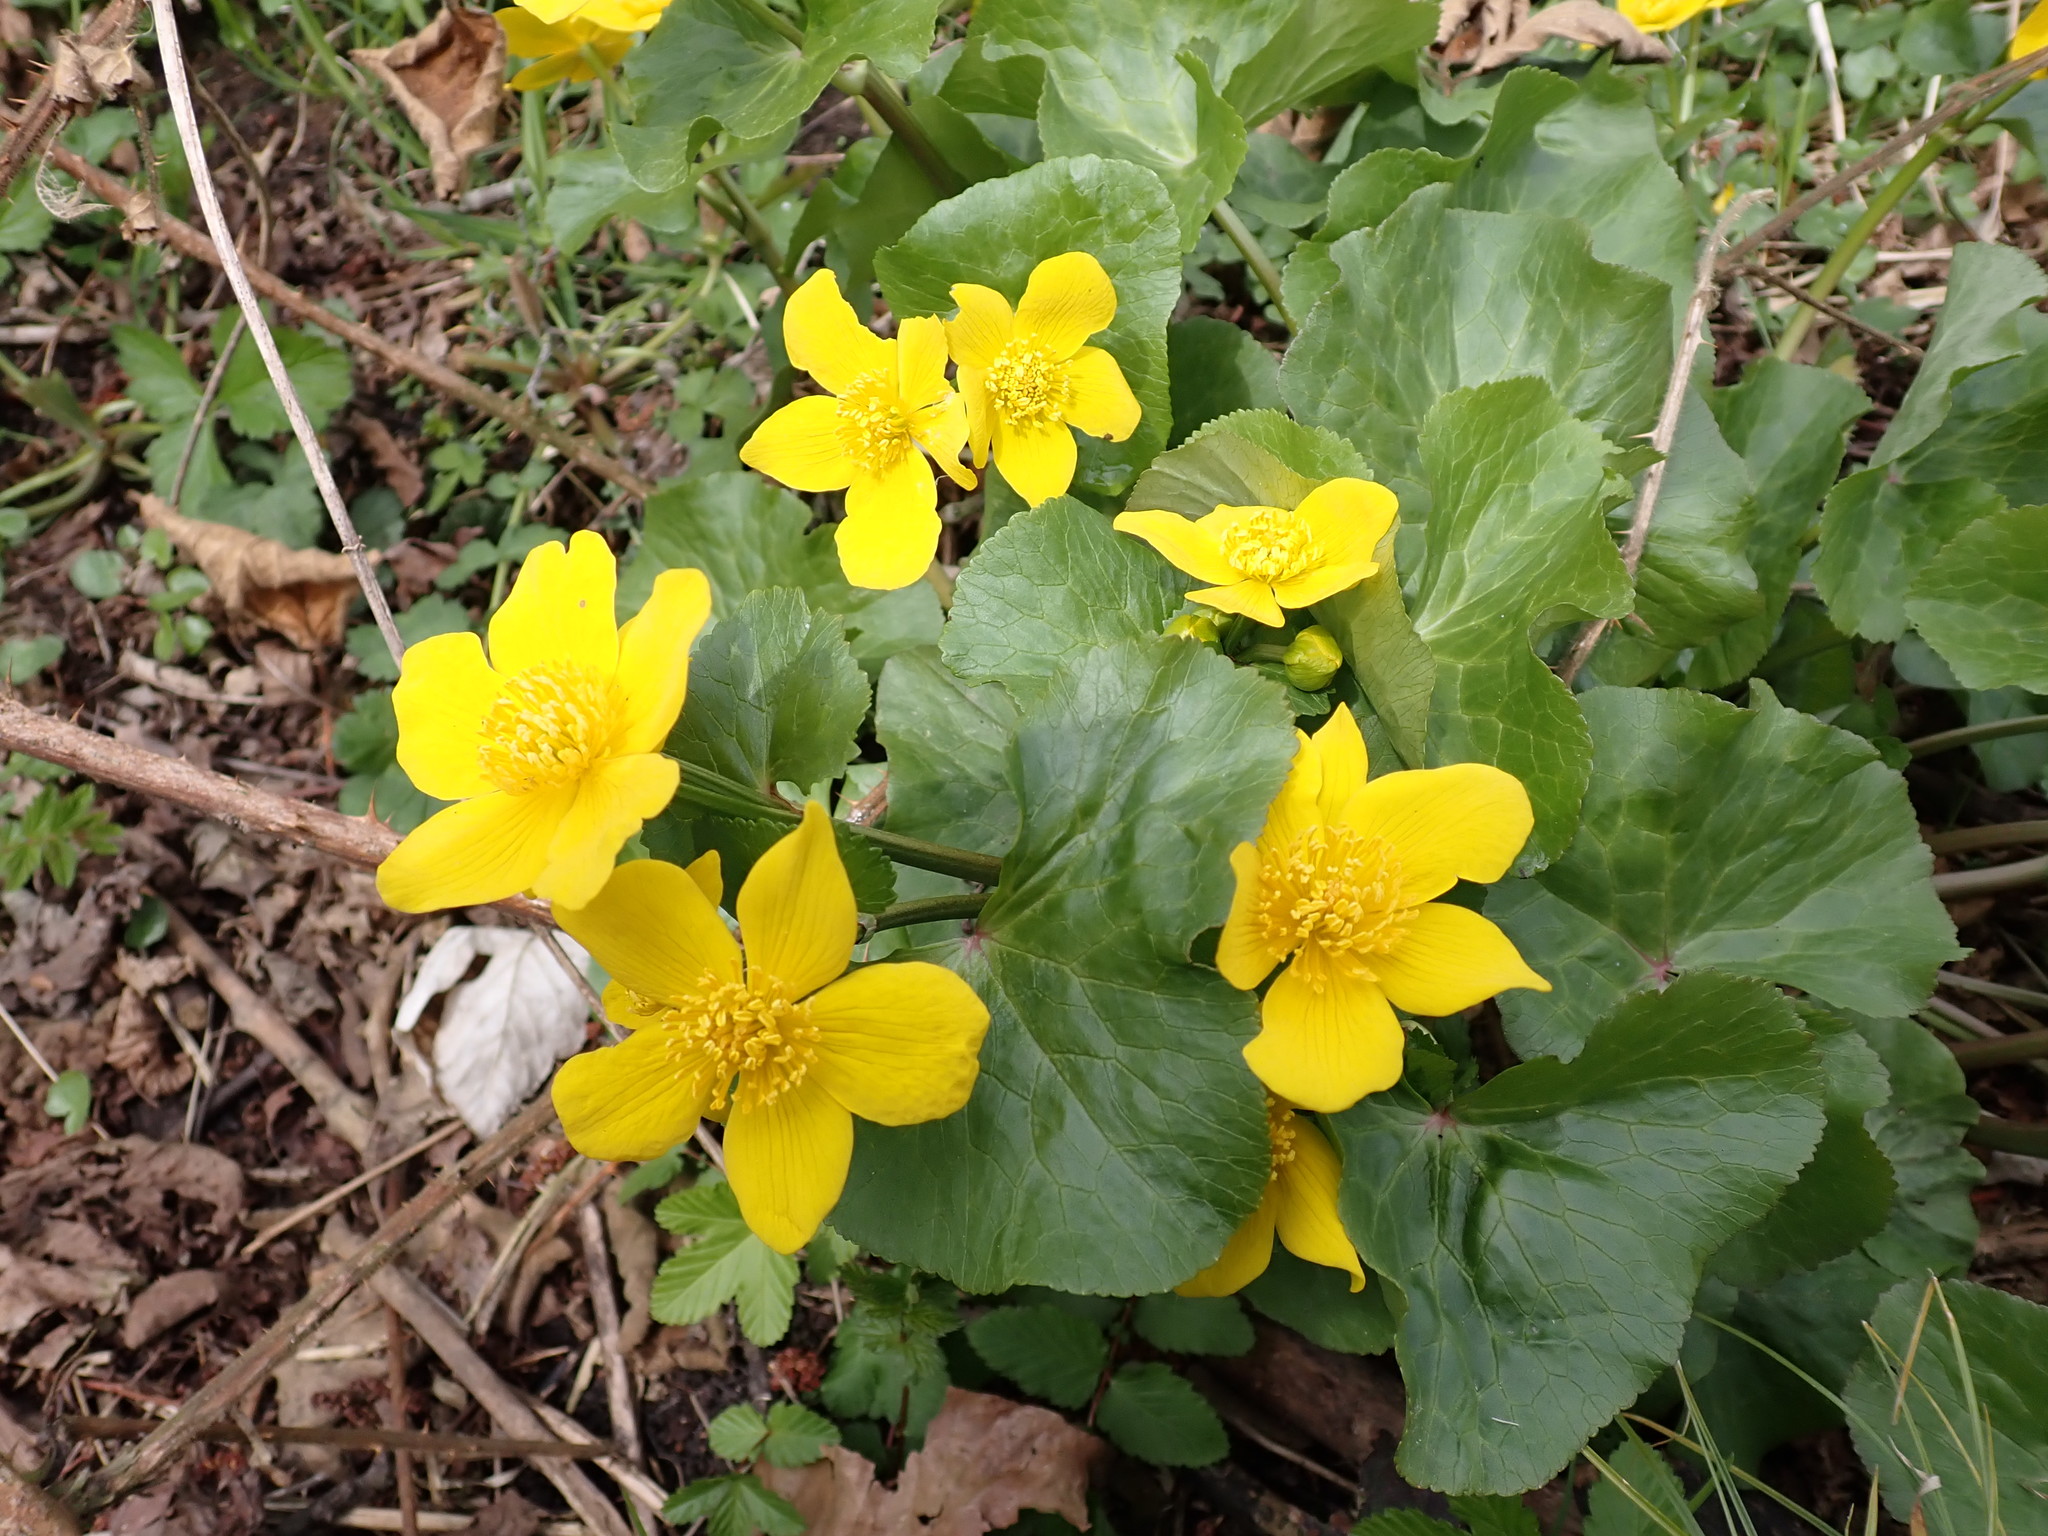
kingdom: Plantae
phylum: Tracheophyta
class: Magnoliopsida
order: Ranunculales
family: Ranunculaceae
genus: Caltha
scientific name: Caltha palustris
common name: Marsh marigold
